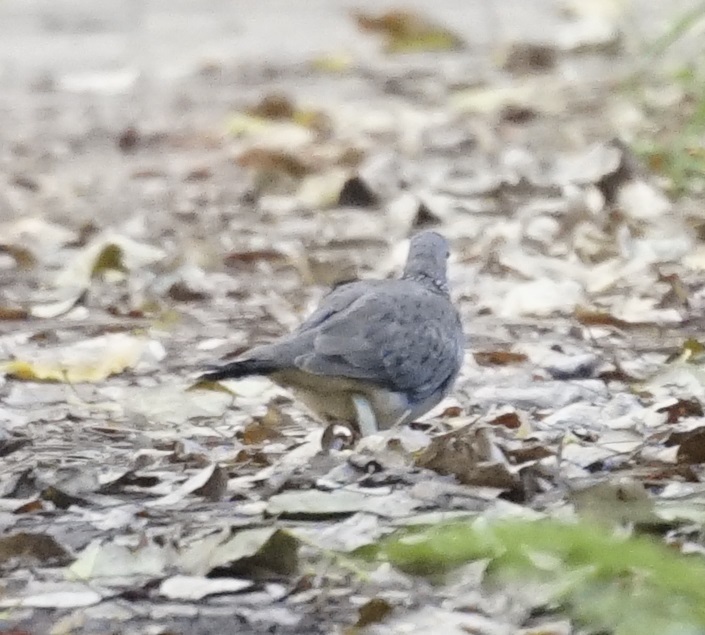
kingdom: Animalia
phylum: Chordata
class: Aves
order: Columbiformes
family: Columbidae
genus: Spilopelia
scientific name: Spilopelia chinensis
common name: Spotted dove
